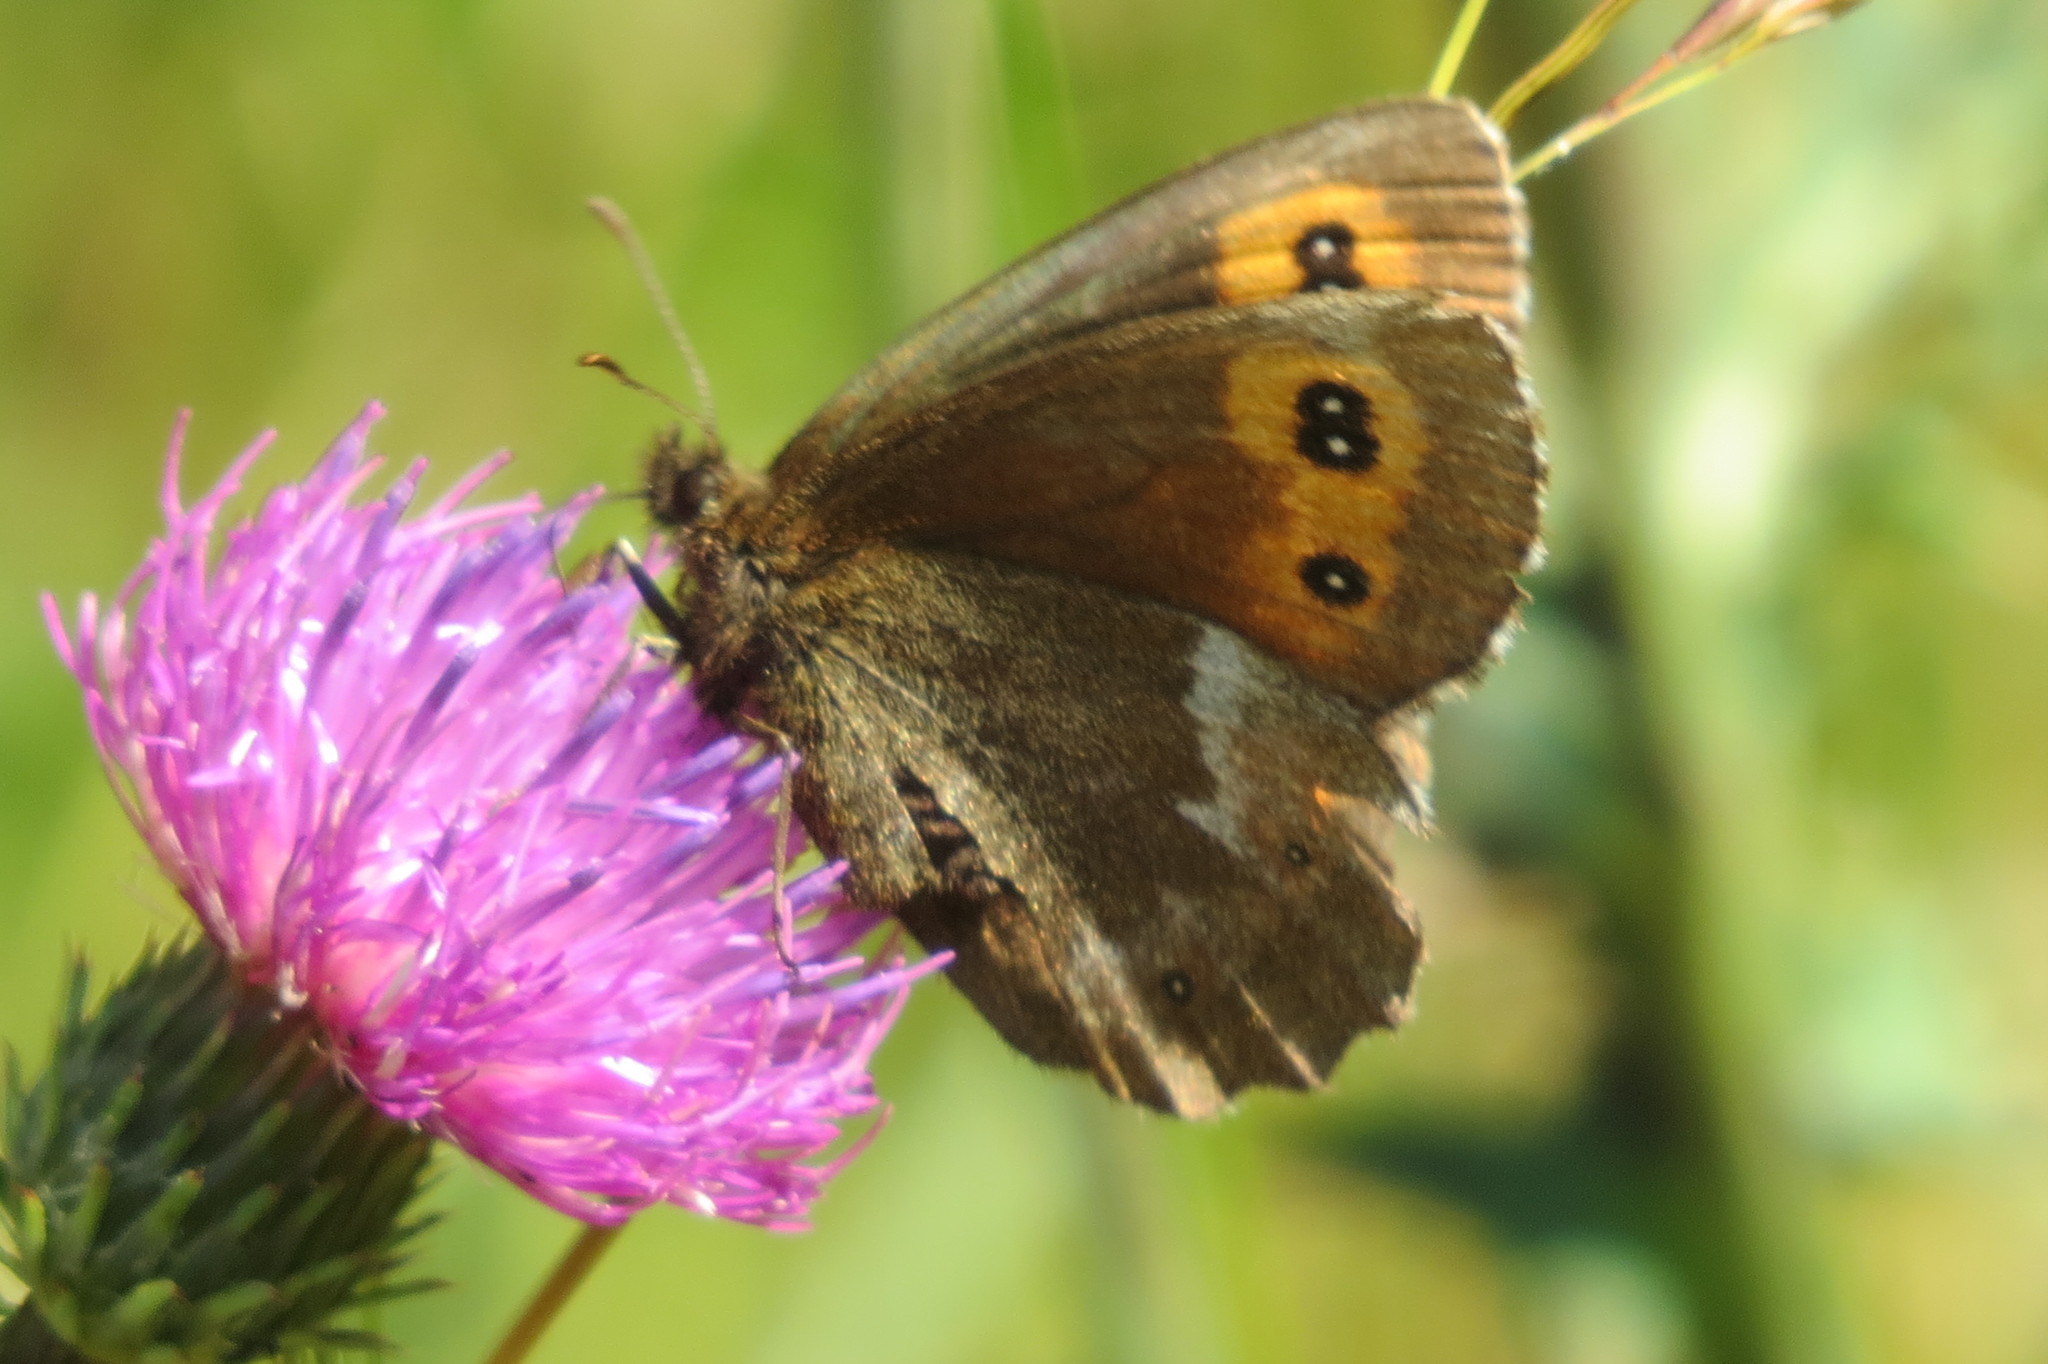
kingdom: Animalia
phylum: Arthropoda
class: Insecta
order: Lepidoptera
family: Nymphalidae
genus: Erebia
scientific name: Erebia euryale
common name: Large ringlet
